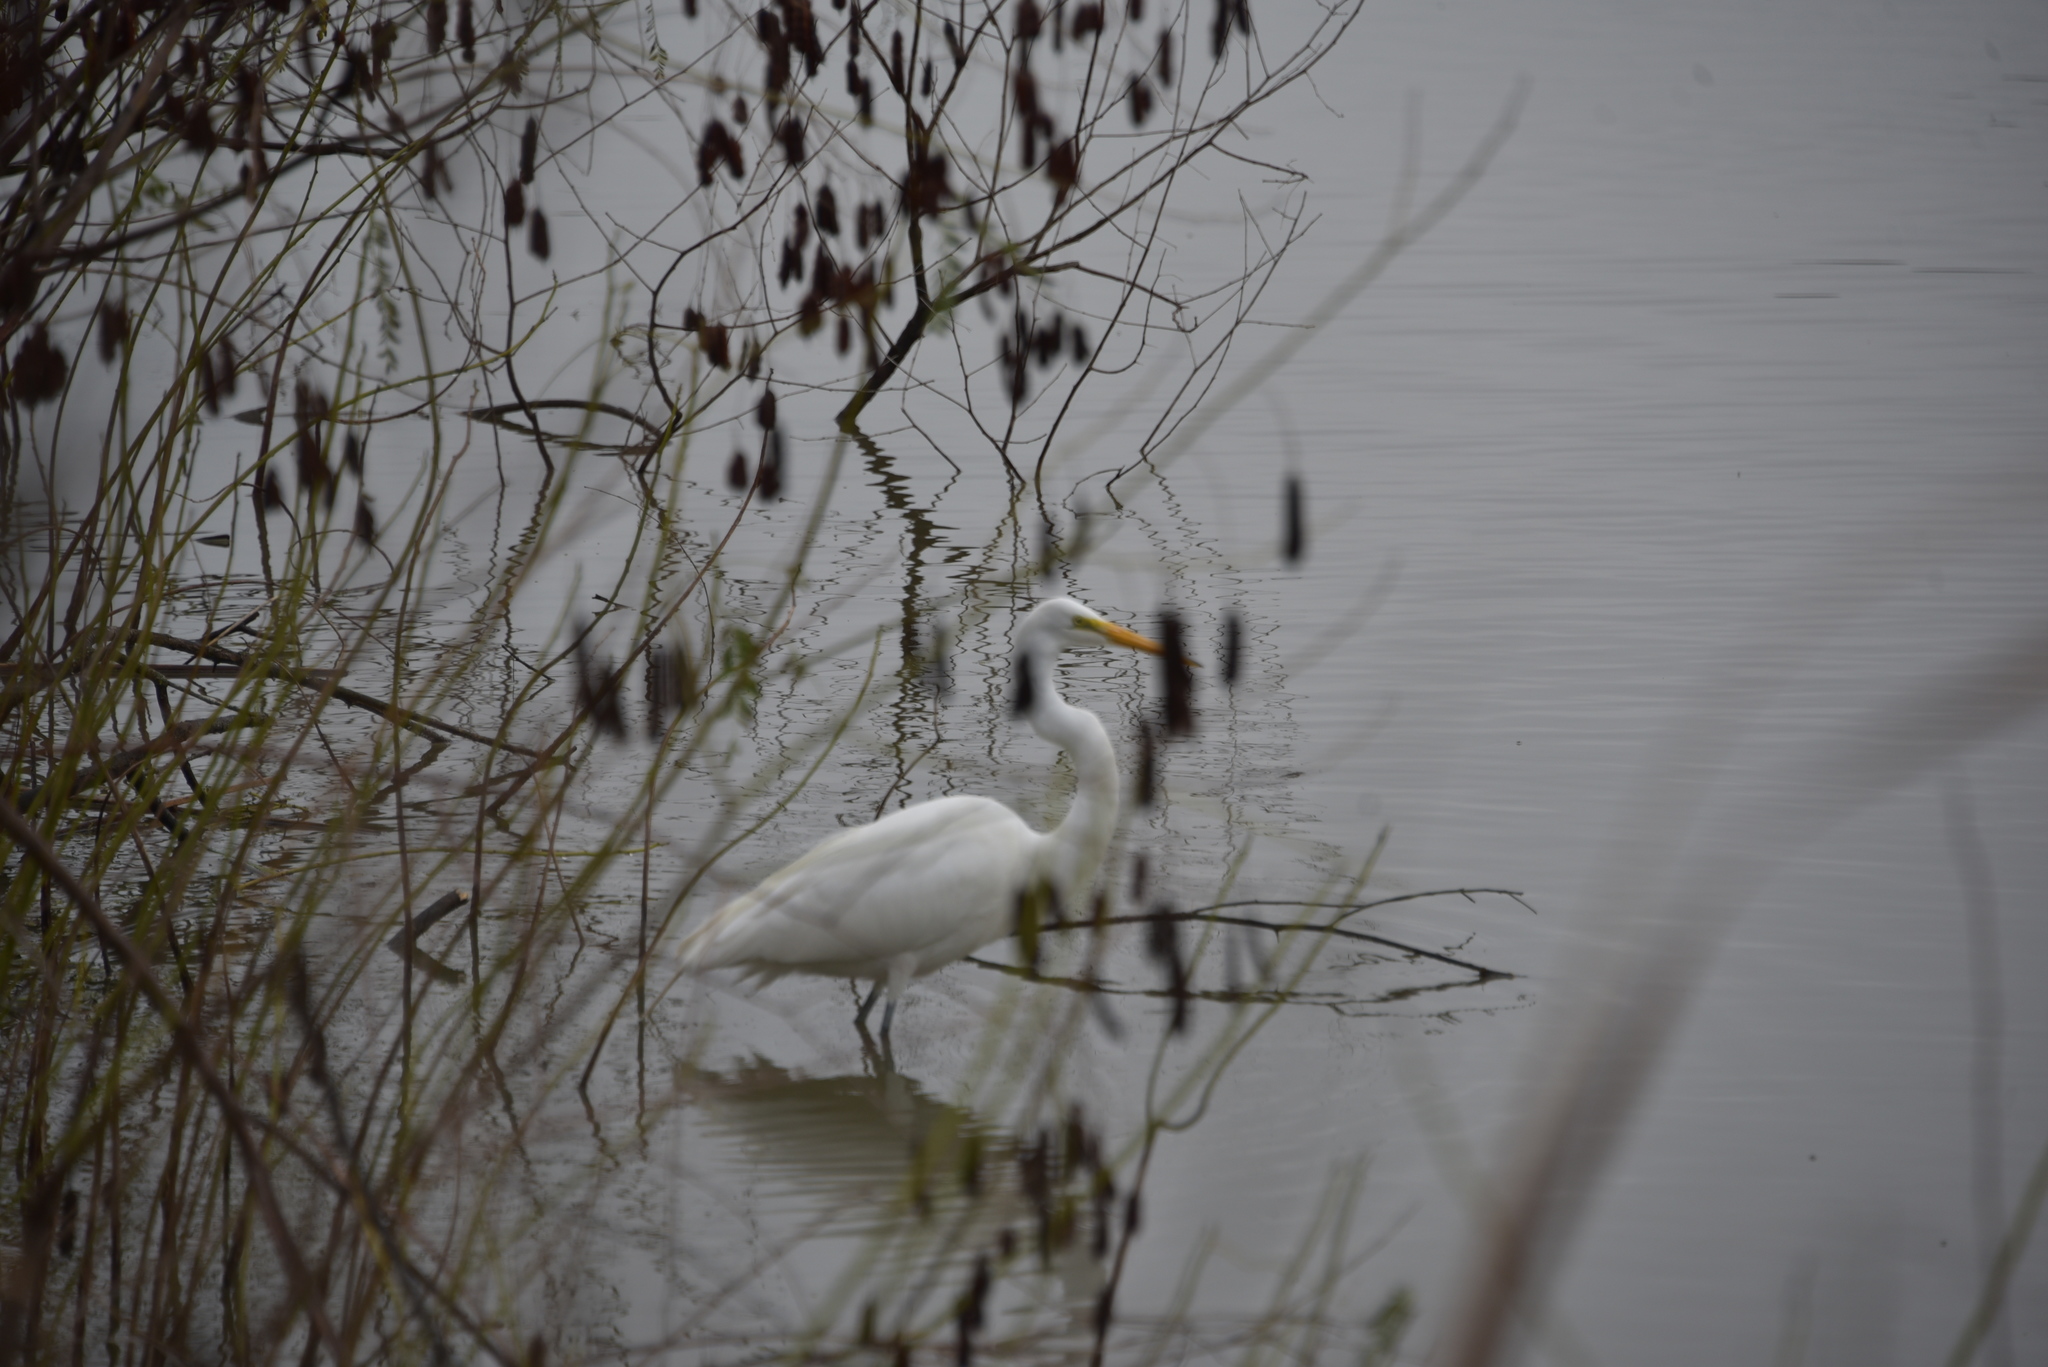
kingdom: Animalia
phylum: Chordata
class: Aves
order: Pelecaniformes
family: Ardeidae
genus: Ardea
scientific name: Ardea alba
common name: Great egret
